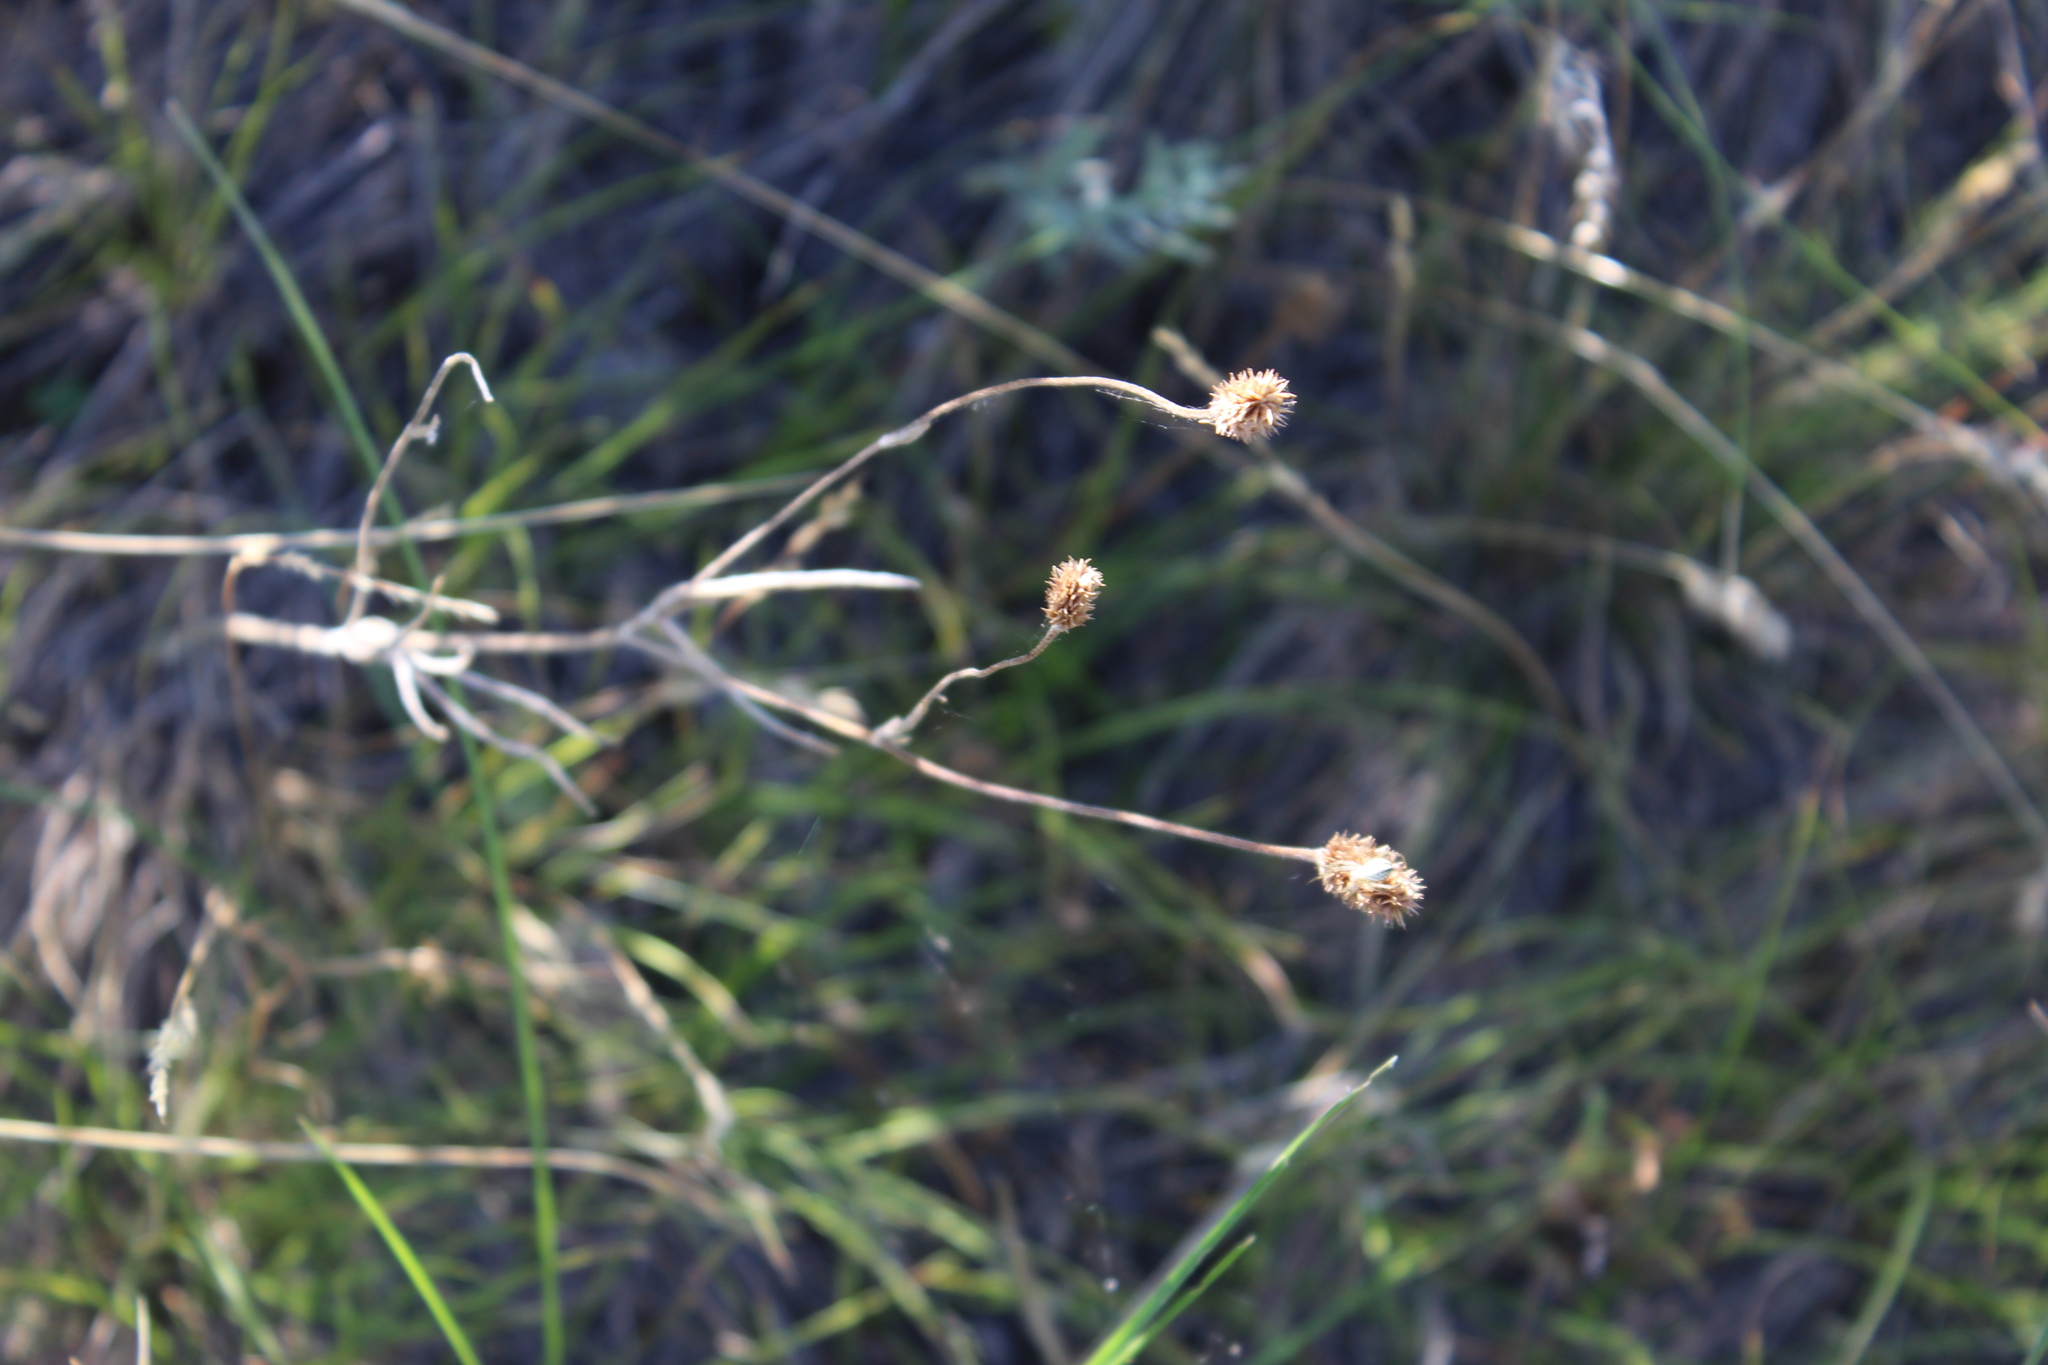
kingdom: Plantae
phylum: Tracheophyta
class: Magnoliopsida
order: Ranunculales
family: Ranunculaceae
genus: Ranunculus
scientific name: Ranunculus illyricus
